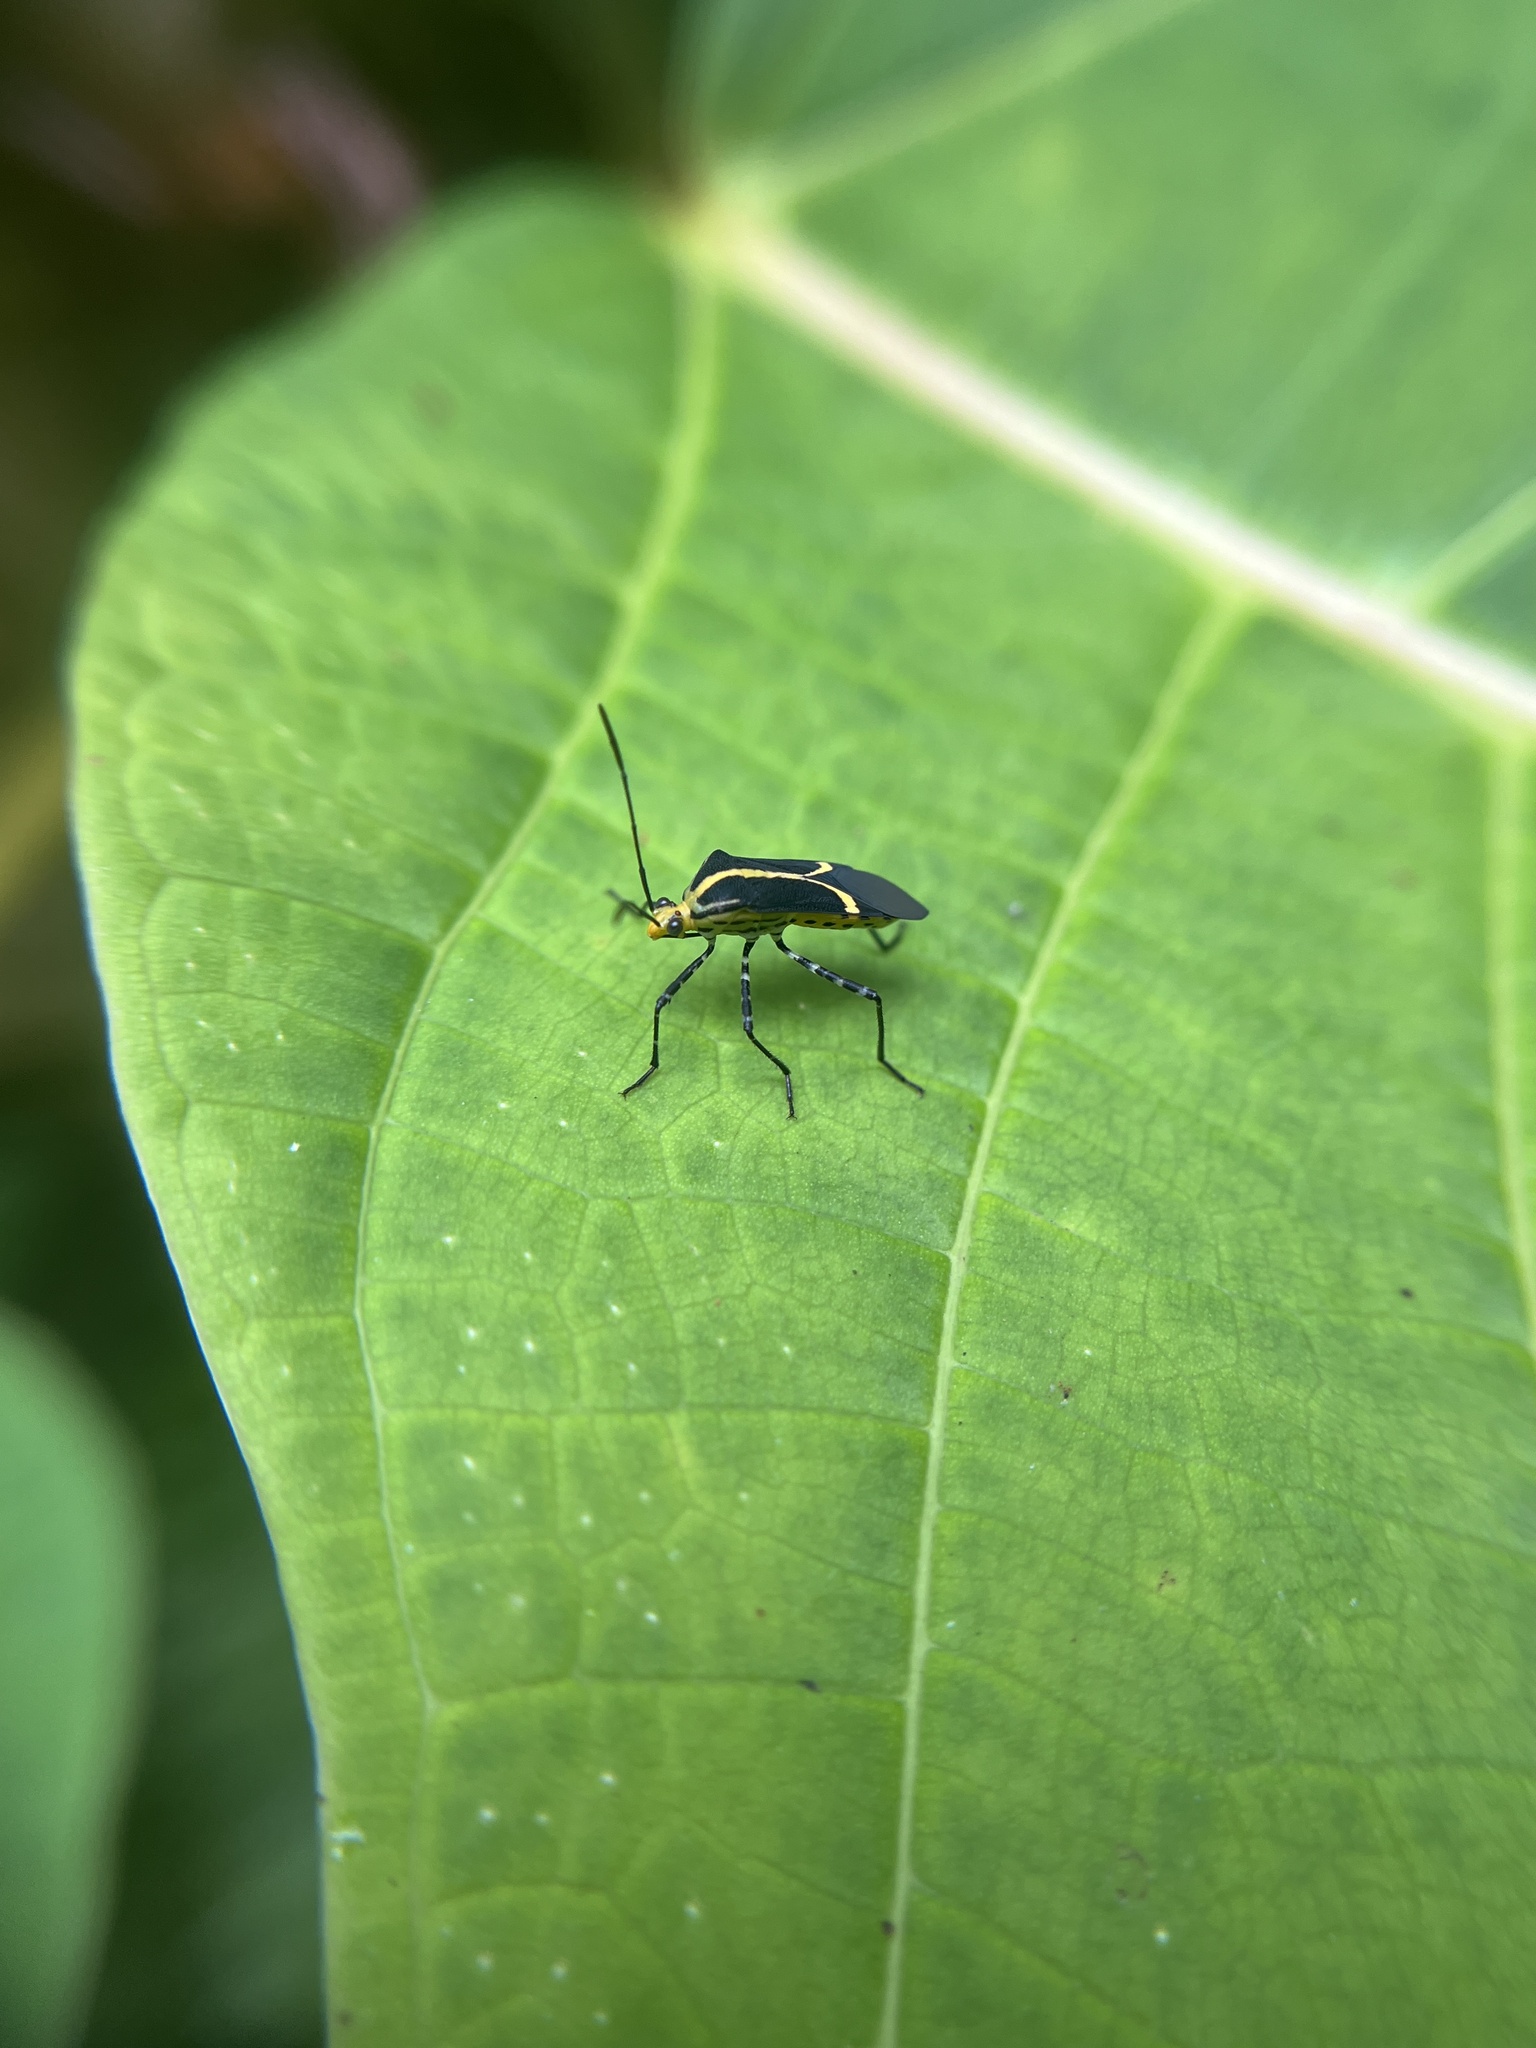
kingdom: Animalia
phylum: Arthropoda
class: Insecta
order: Hemiptera
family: Coreidae
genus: Hypselonotus
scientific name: Hypselonotus linea
